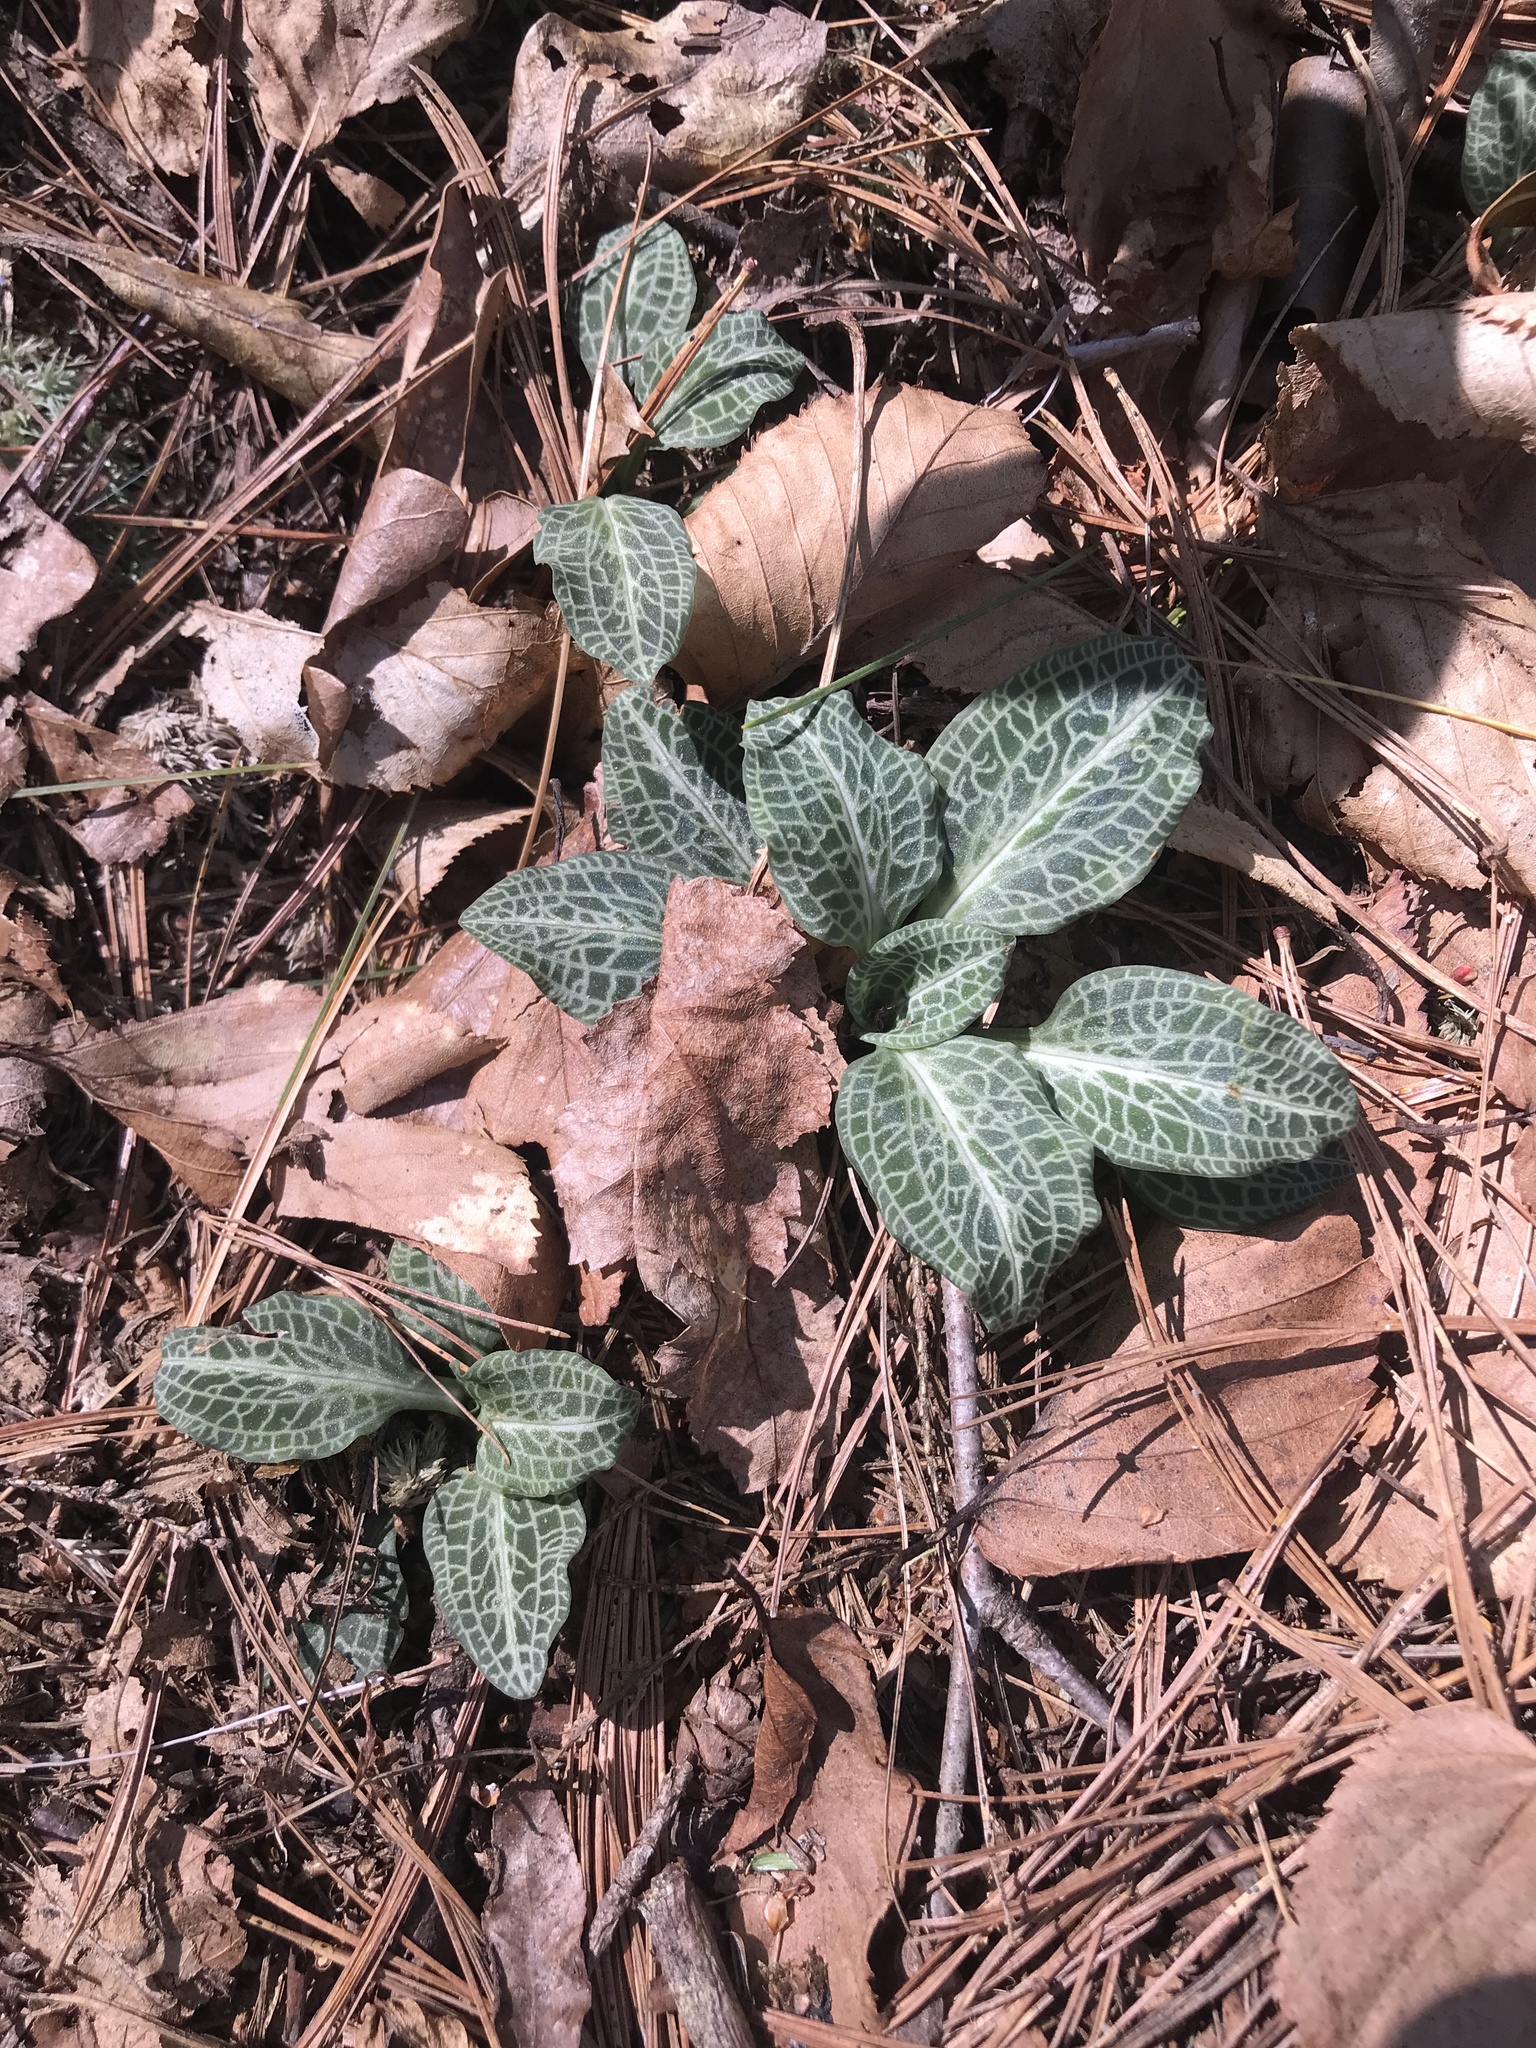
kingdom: Plantae
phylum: Tracheophyta
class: Liliopsida
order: Asparagales
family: Orchidaceae
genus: Goodyera
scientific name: Goodyera pubescens
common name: Downy rattlesnake-plantain
